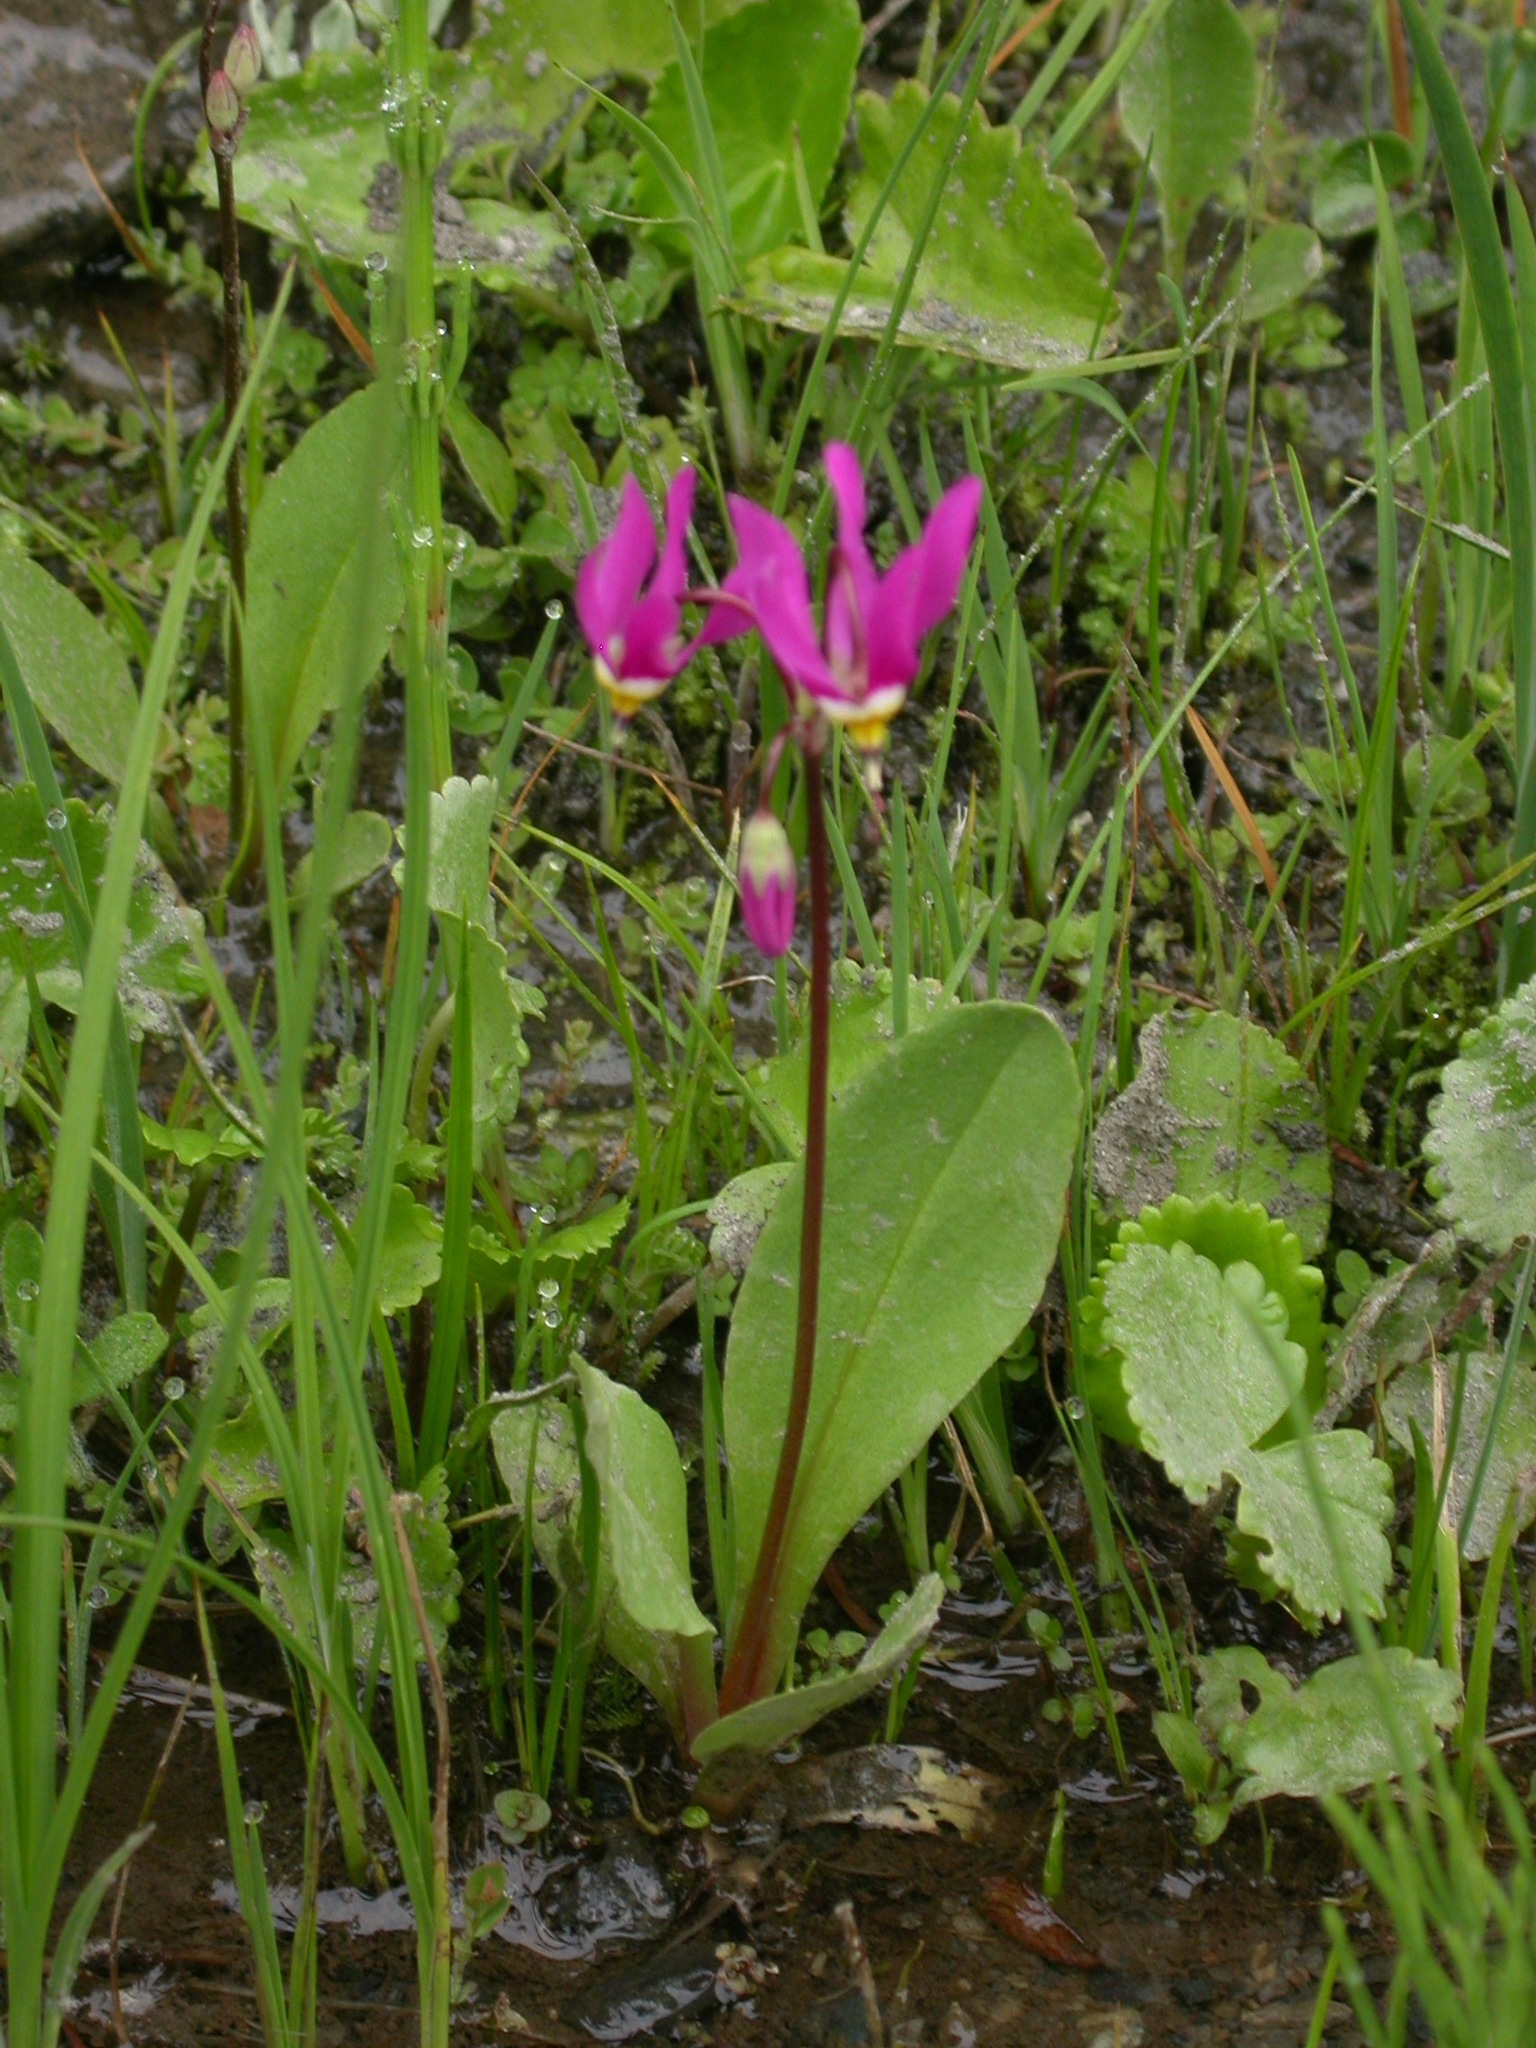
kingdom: Plantae
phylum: Tracheophyta
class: Magnoliopsida
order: Ericales
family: Primulaceae
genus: Dodecatheon
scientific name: Dodecatheon pulchellum
